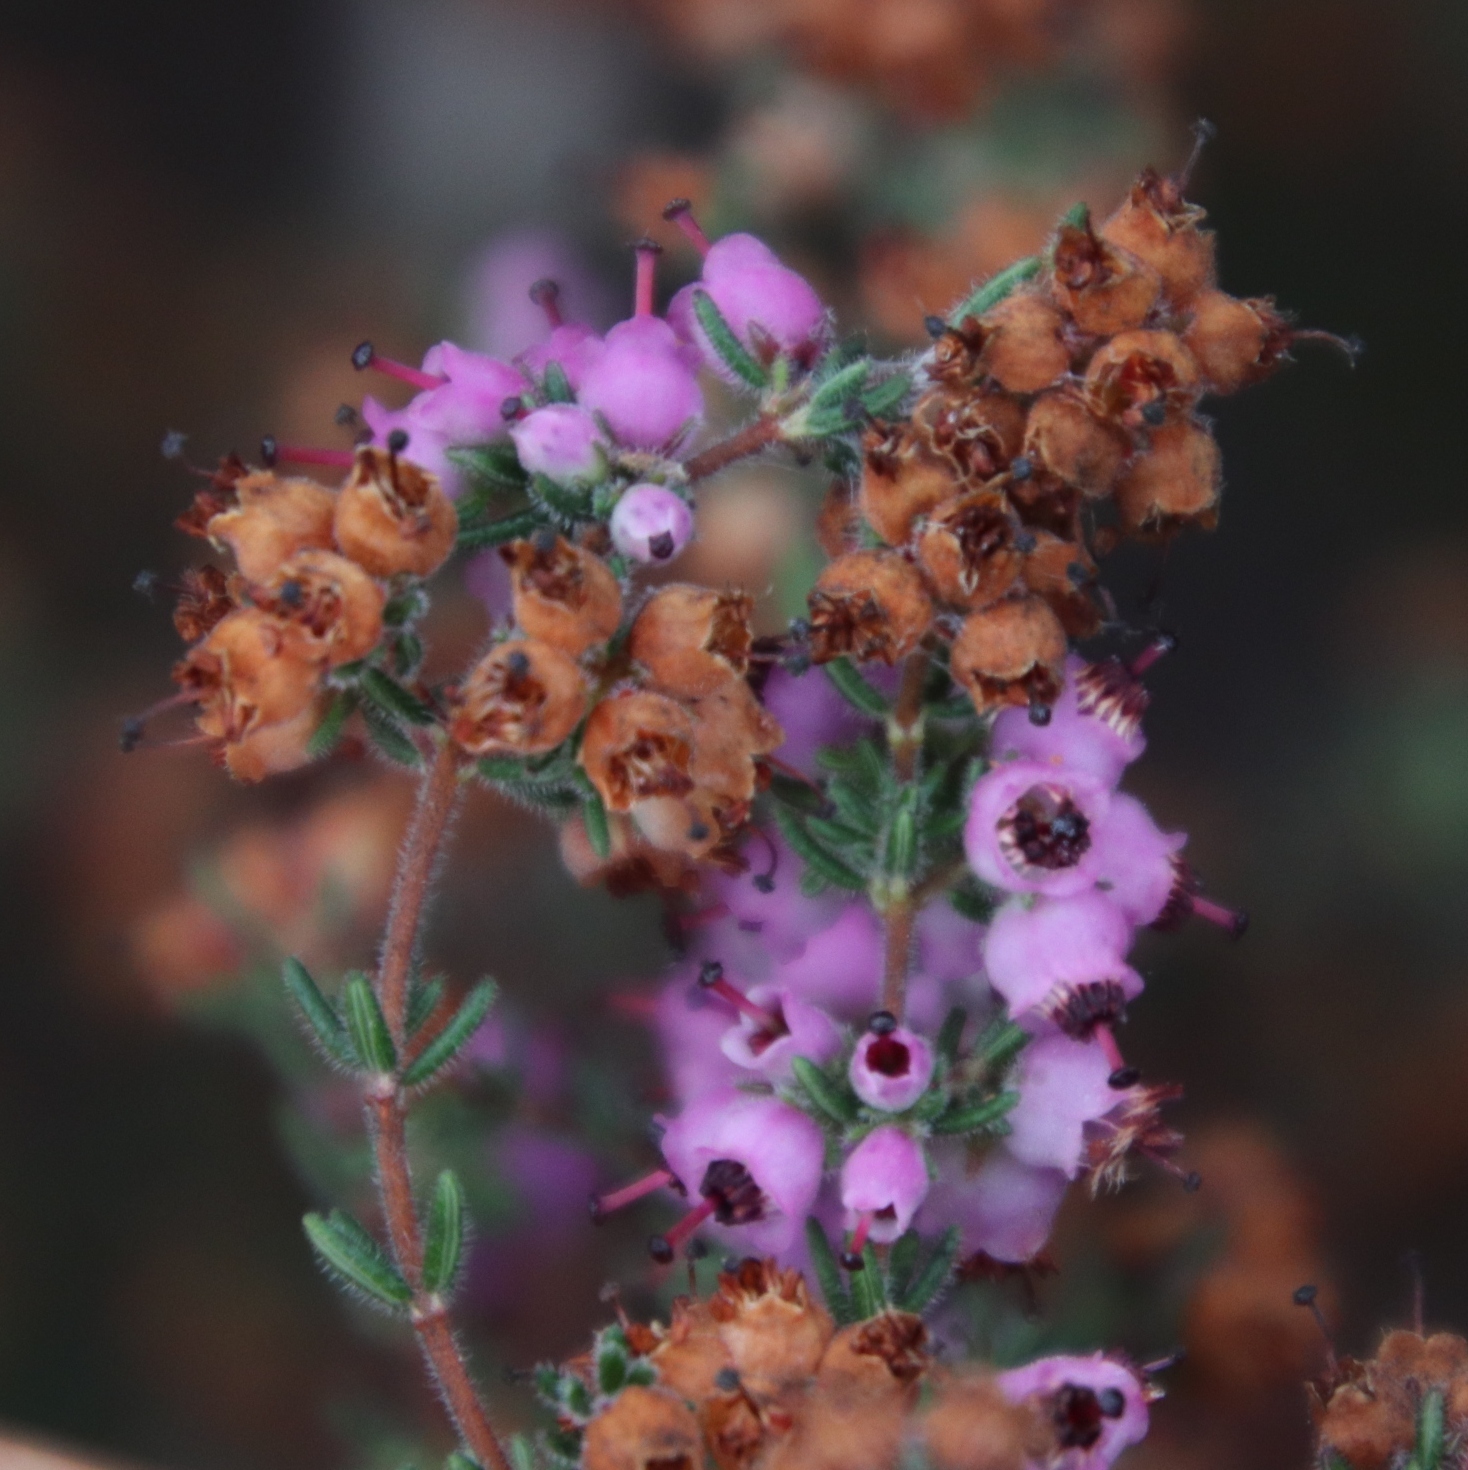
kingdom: Plantae
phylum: Tracheophyta
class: Magnoliopsida
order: Ericales
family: Ericaceae
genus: Erica
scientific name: Erica turgida
